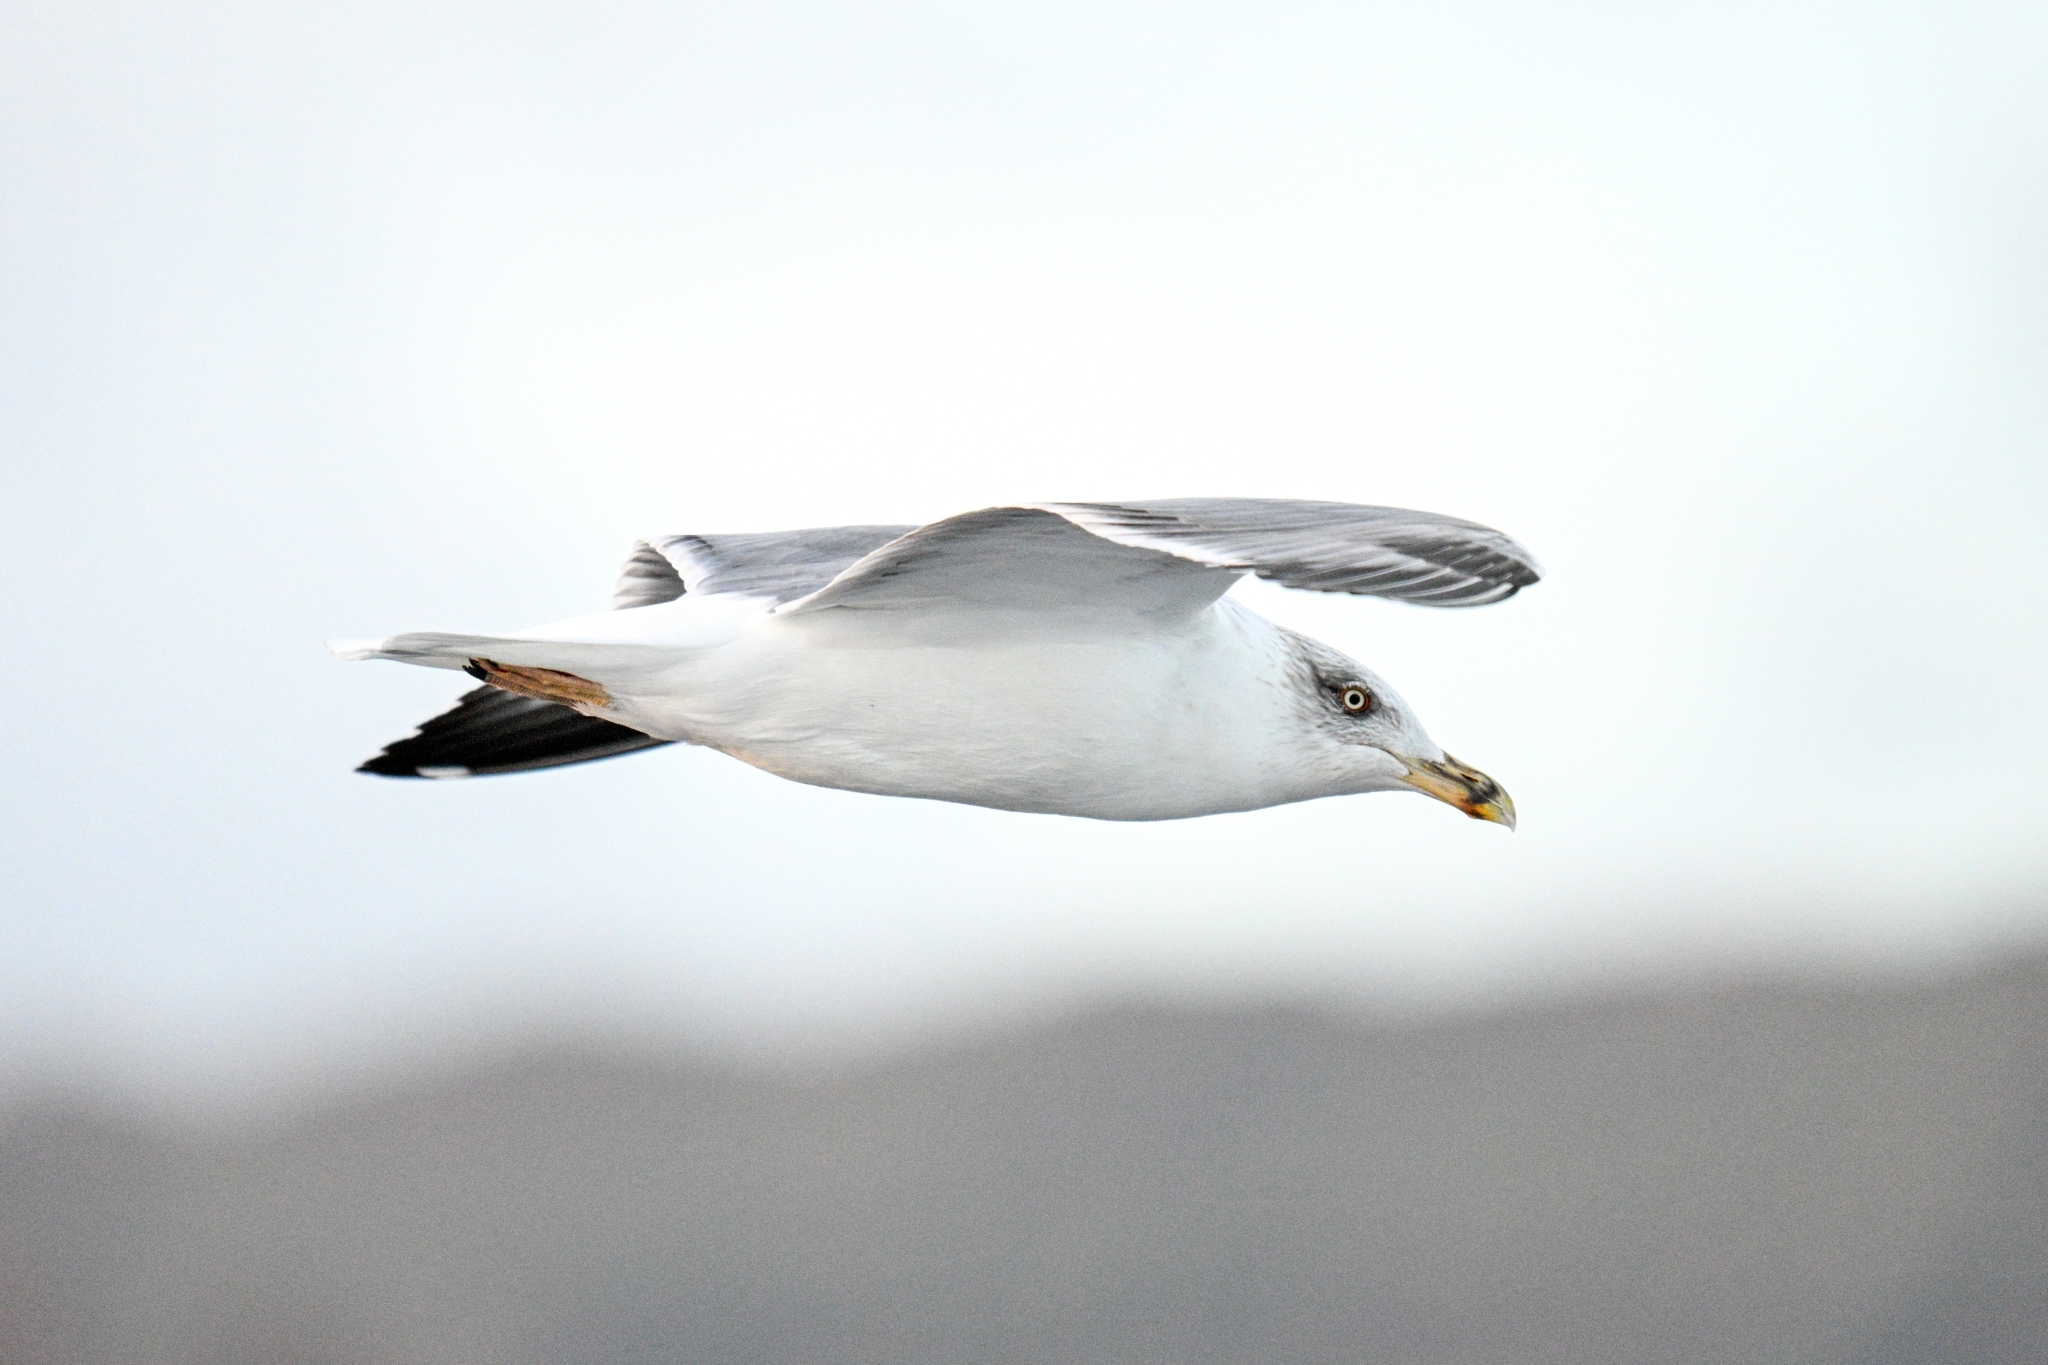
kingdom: Animalia
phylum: Chordata
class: Aves
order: Charadriiformes
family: Laridae
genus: Larus
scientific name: Larus michahellis
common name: Yellow-legged gull
